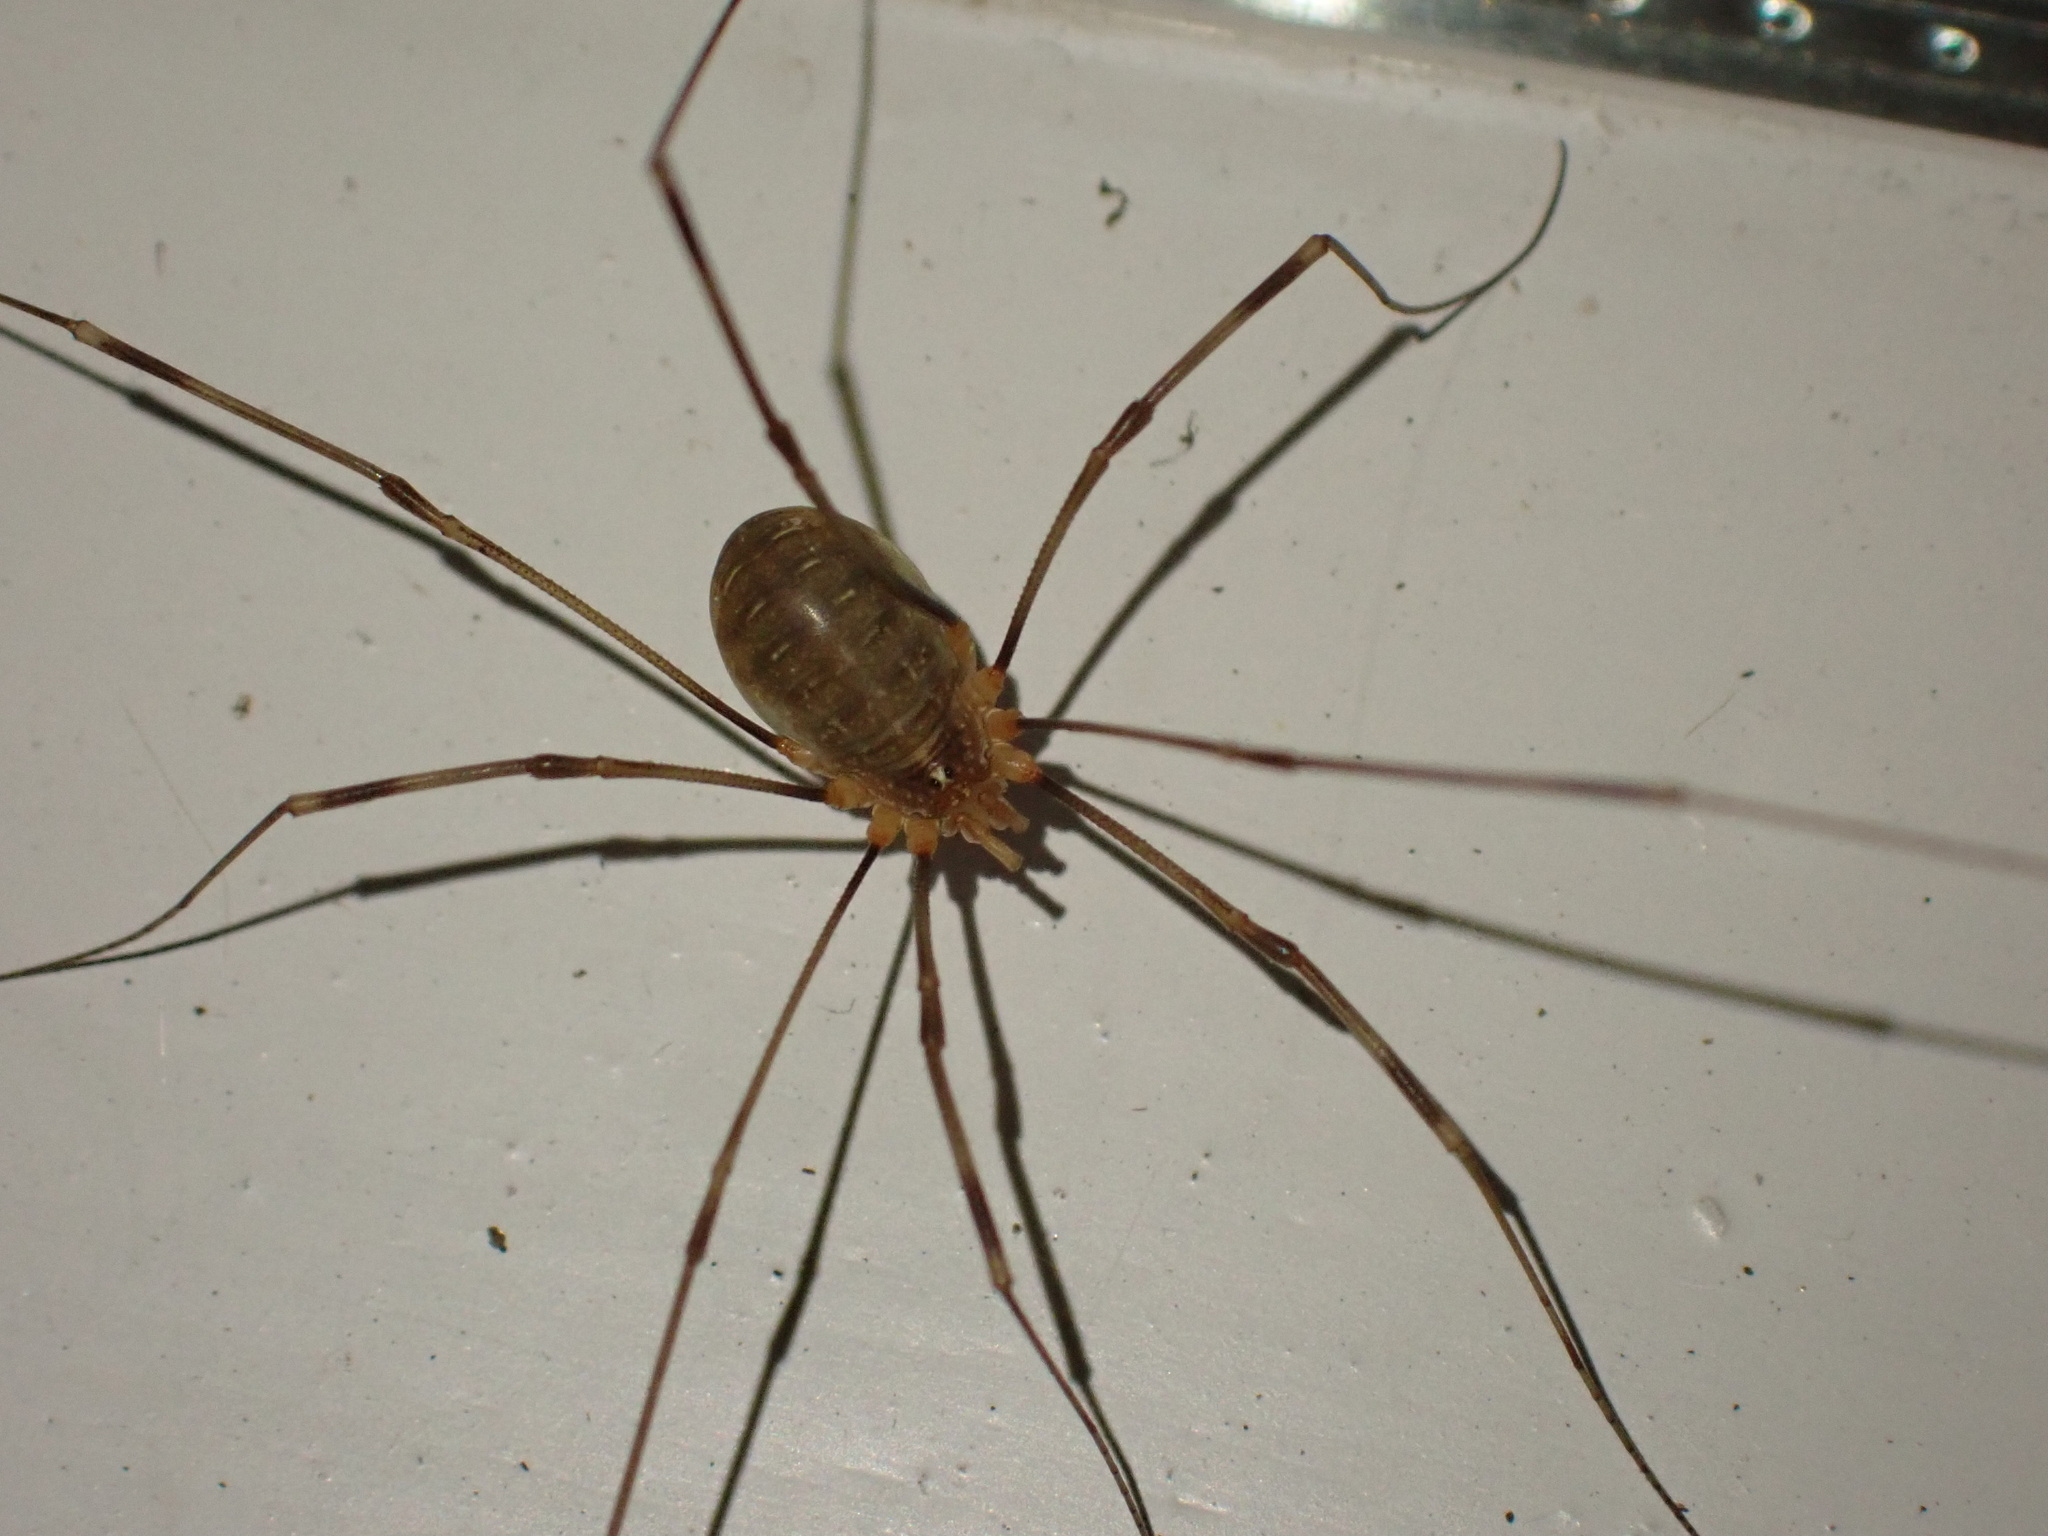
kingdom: Animalia
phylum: Arthropoda
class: Arachnida
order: Opiliones
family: Phalangiidae
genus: Opilio
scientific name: Opilio canestrinii
